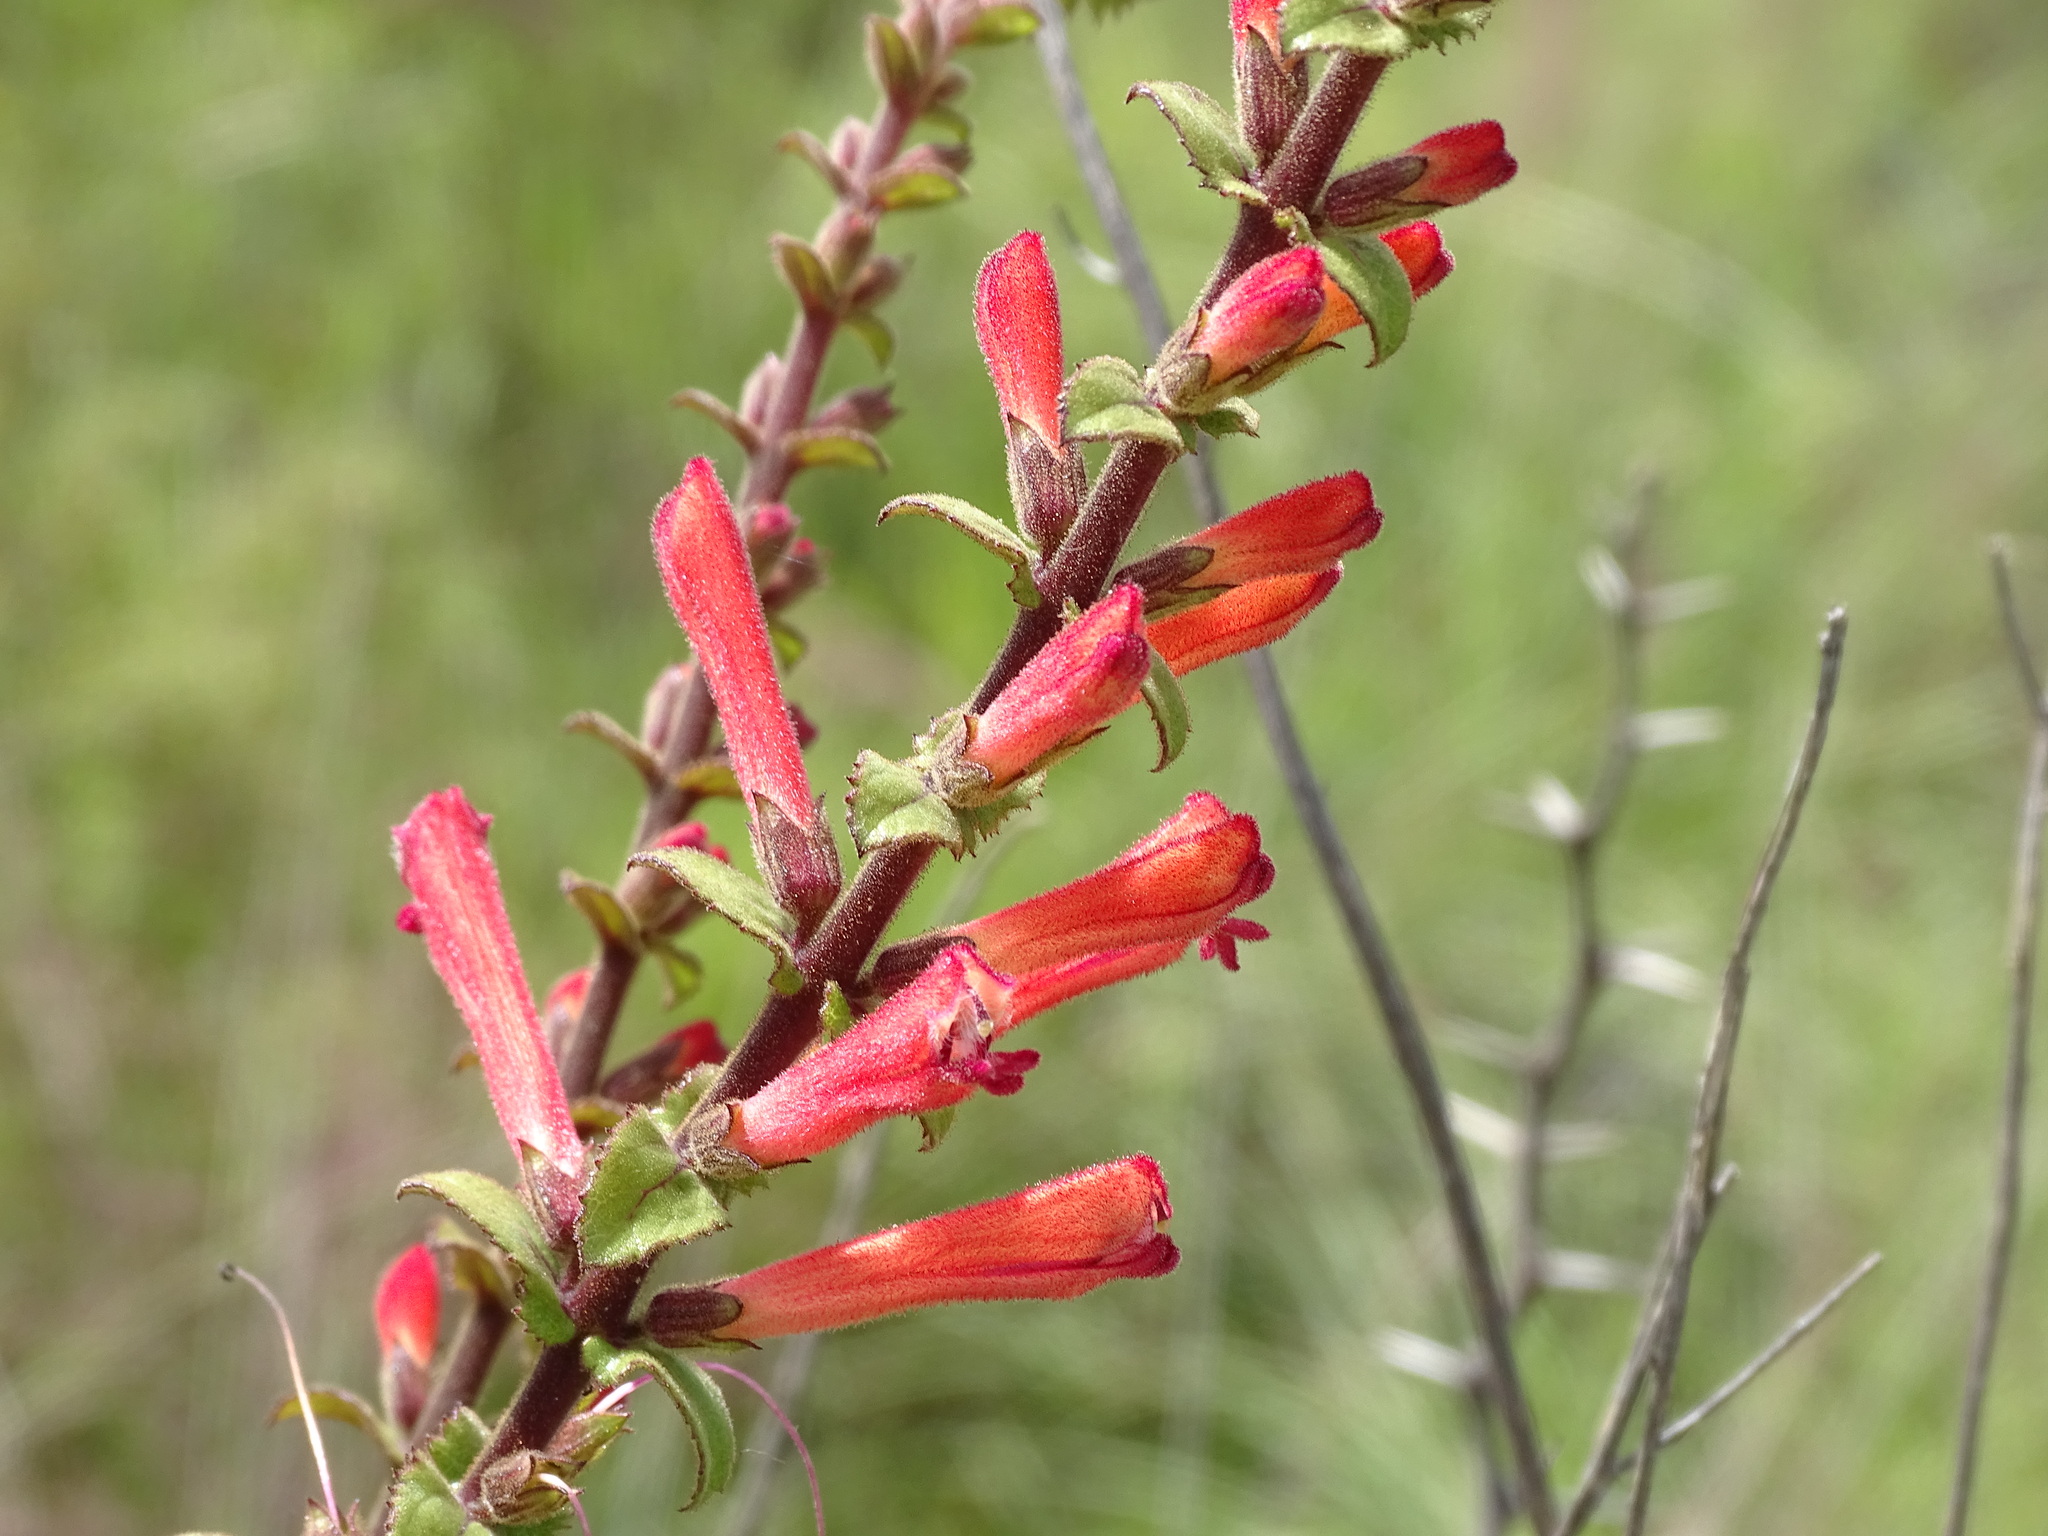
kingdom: Plantae
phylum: Tracheophyta
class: Magnoliopsida
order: Lamiales
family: Orobanchaceae
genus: Lamourouxia
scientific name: Lamourouxia viscosa
